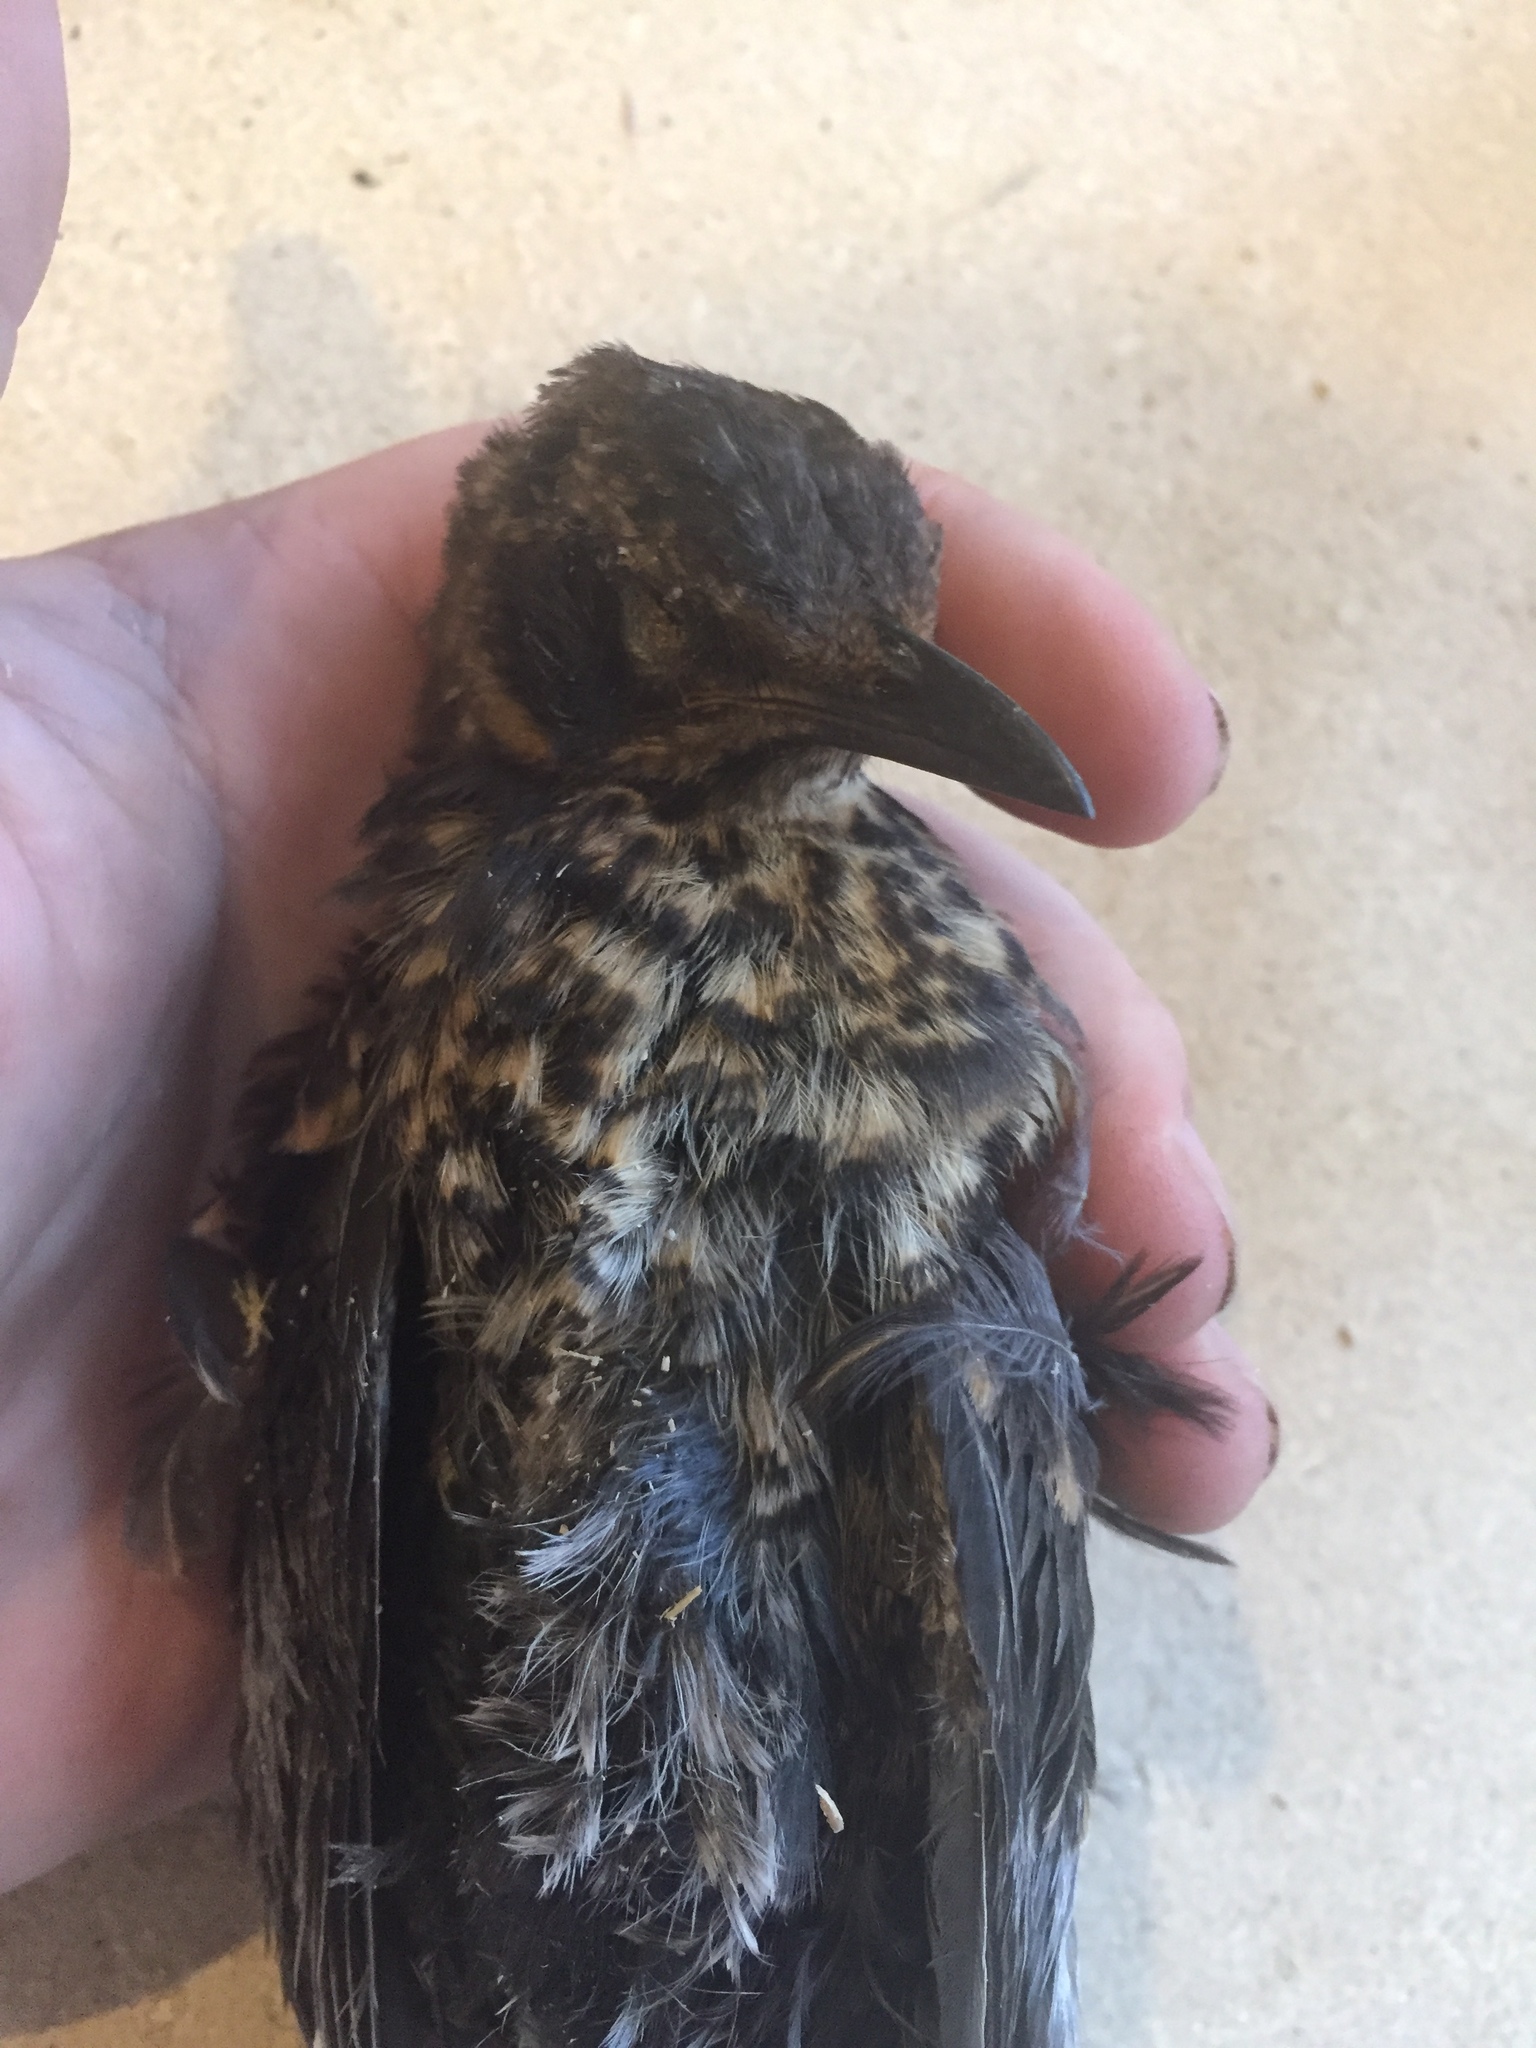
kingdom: Animalia
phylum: Chordata
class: Aves
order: Passeriformes
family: Turdidae
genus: Turdus
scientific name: Turdus merula
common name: Common blackbird
